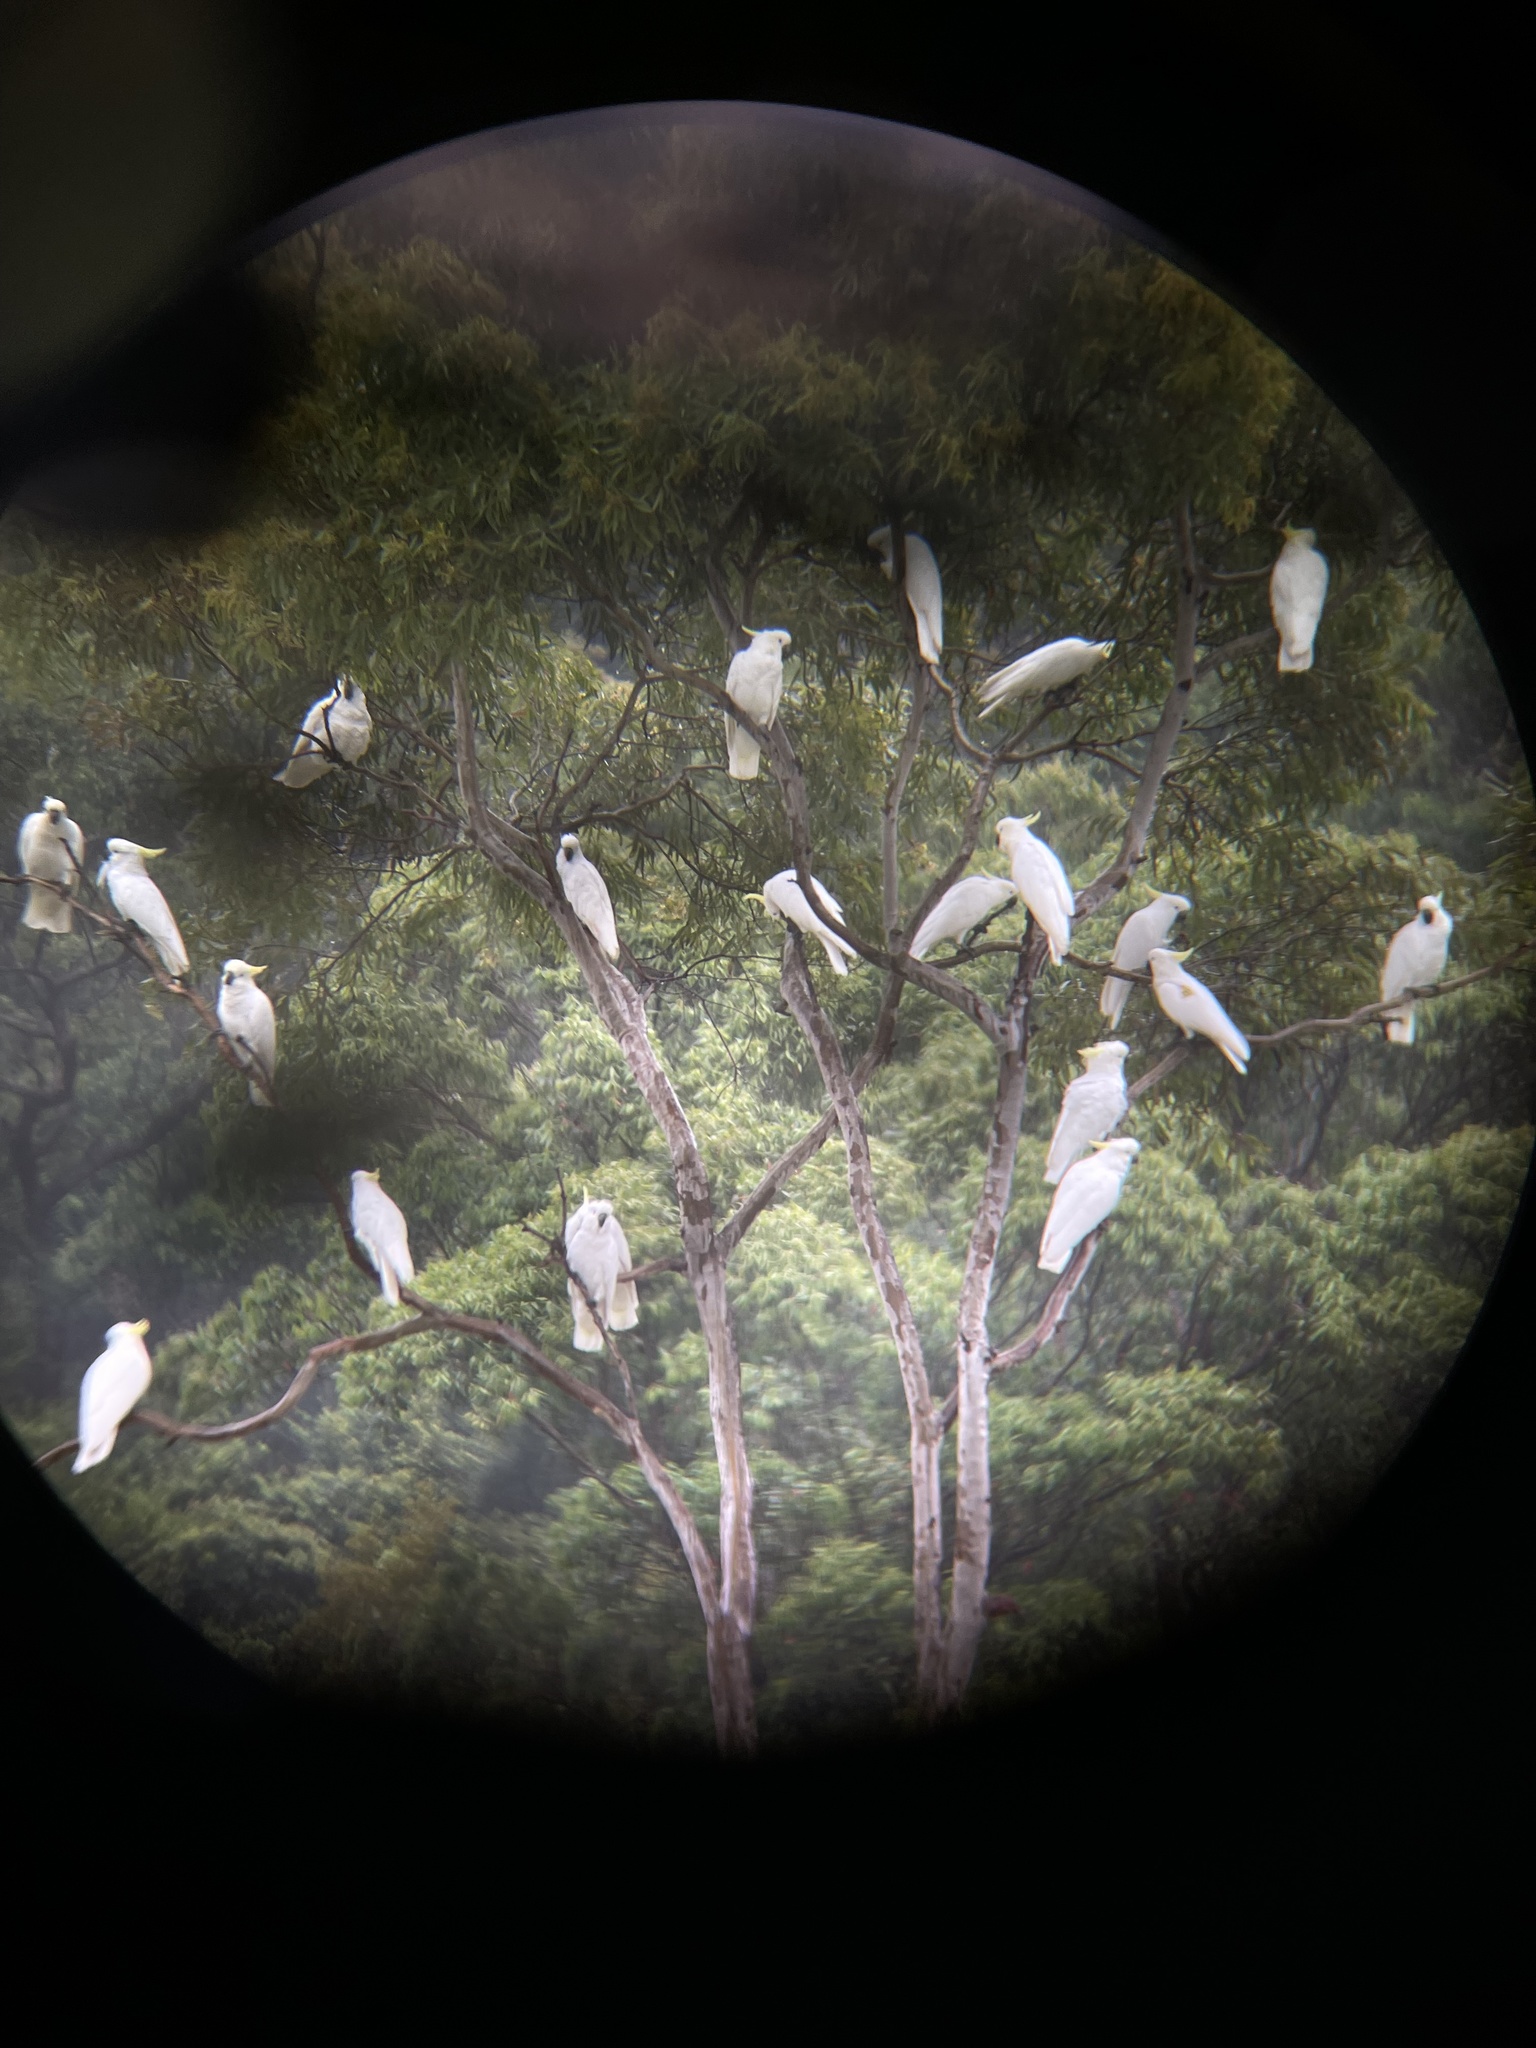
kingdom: Animalia
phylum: Chordata
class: Aves
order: Psittaciformes
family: Psittacidae
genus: Cacatua
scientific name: Cacatua galerita
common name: Sulphur-crested cockatoo
